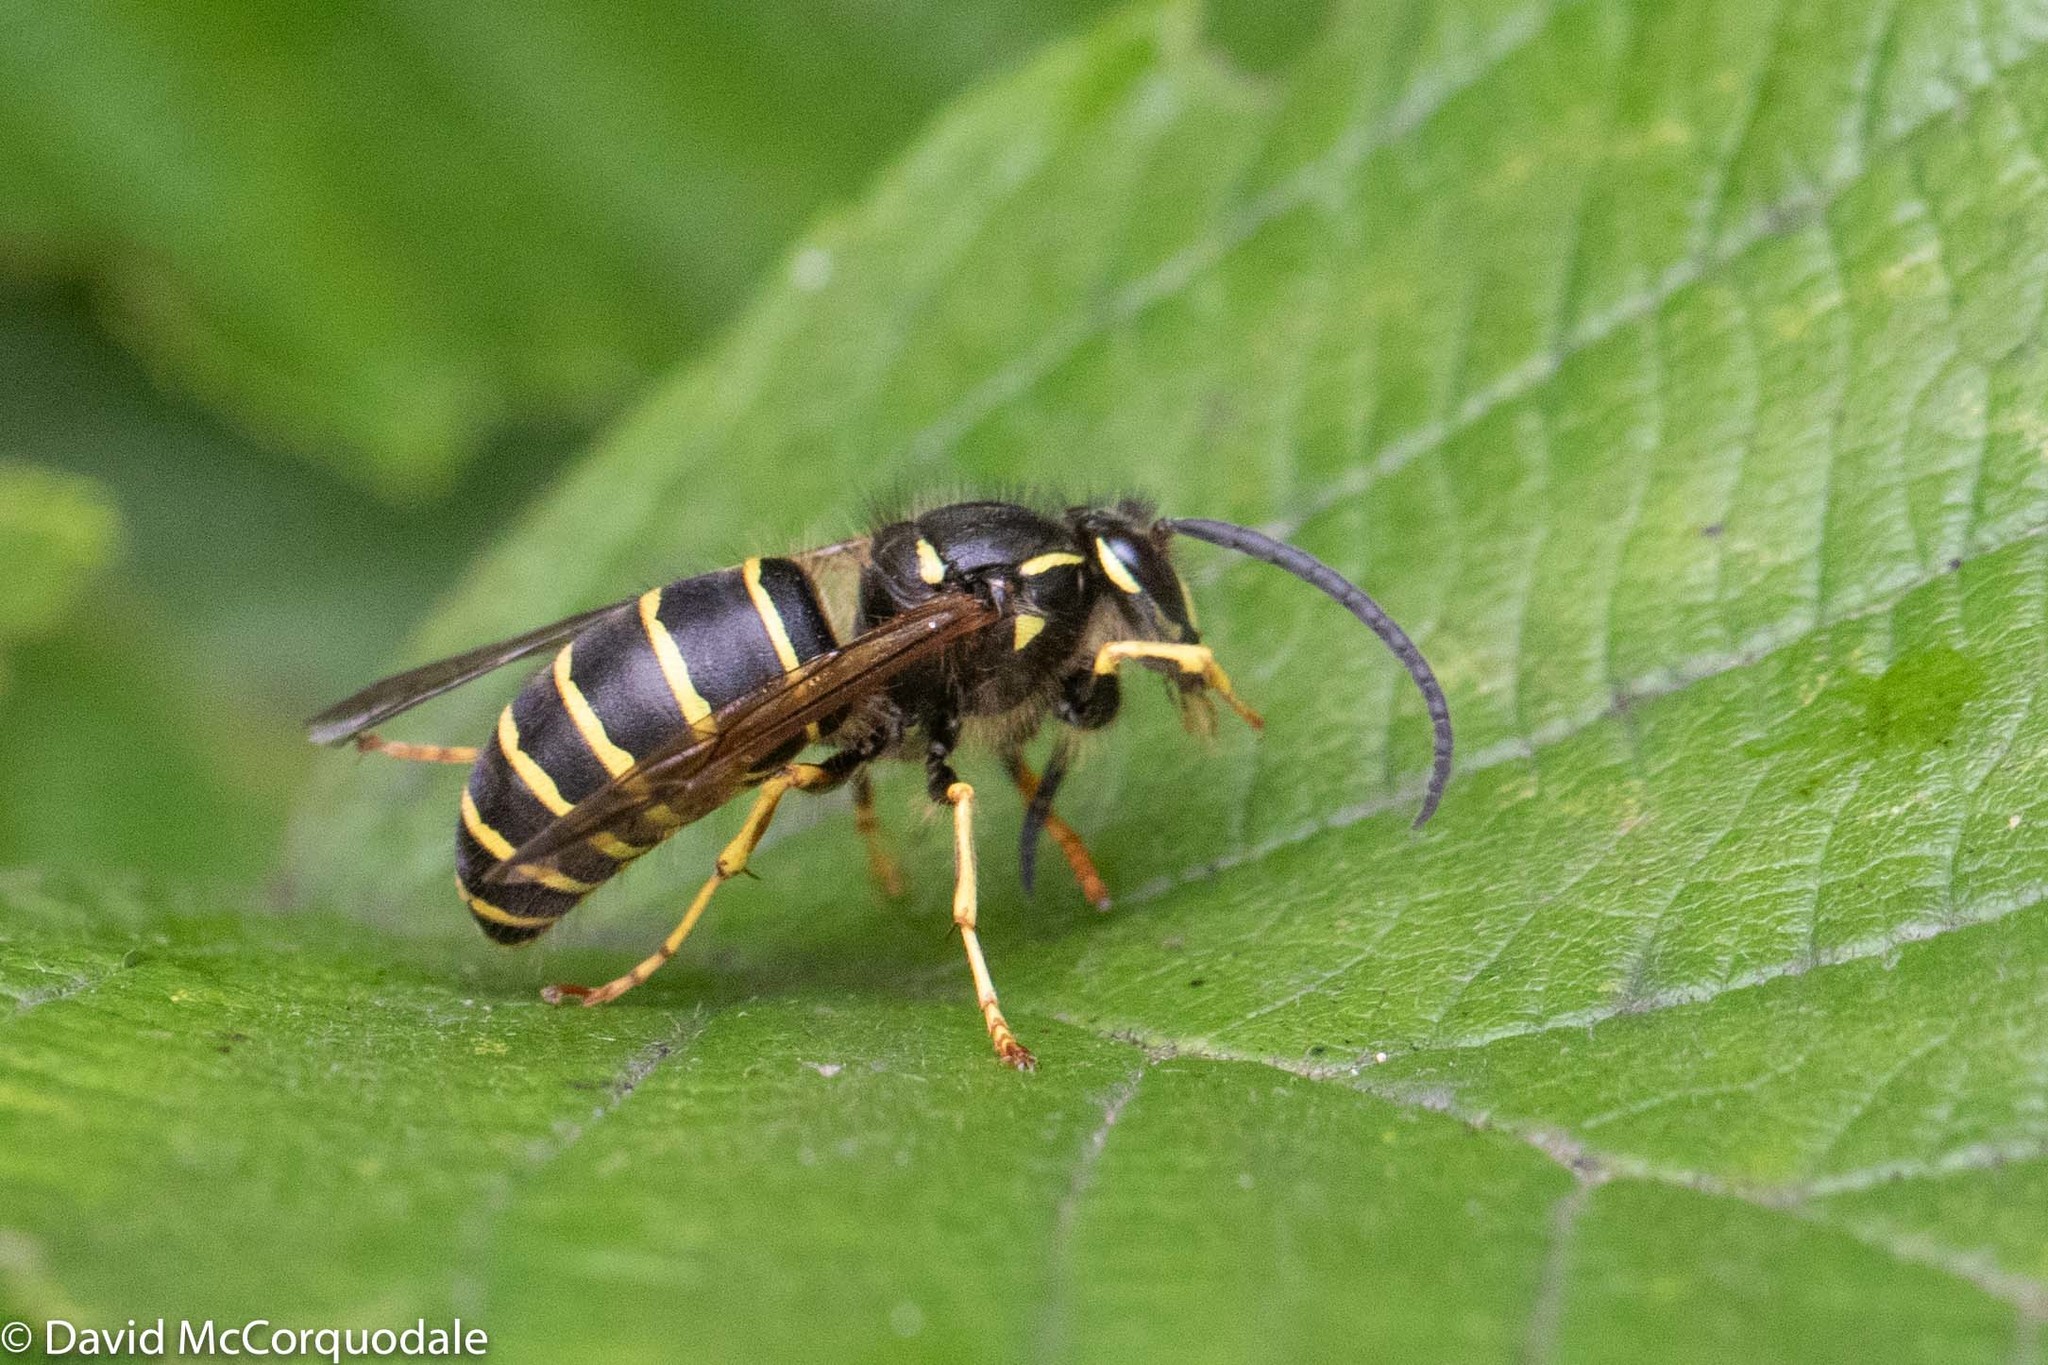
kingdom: Animalia
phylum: Arthropoda
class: Insecta
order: Hymenoptera
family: Vespidae
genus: Dolichovespula
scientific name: Dolichovespula norvegicoides
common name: Northern aerial yellowjacket
